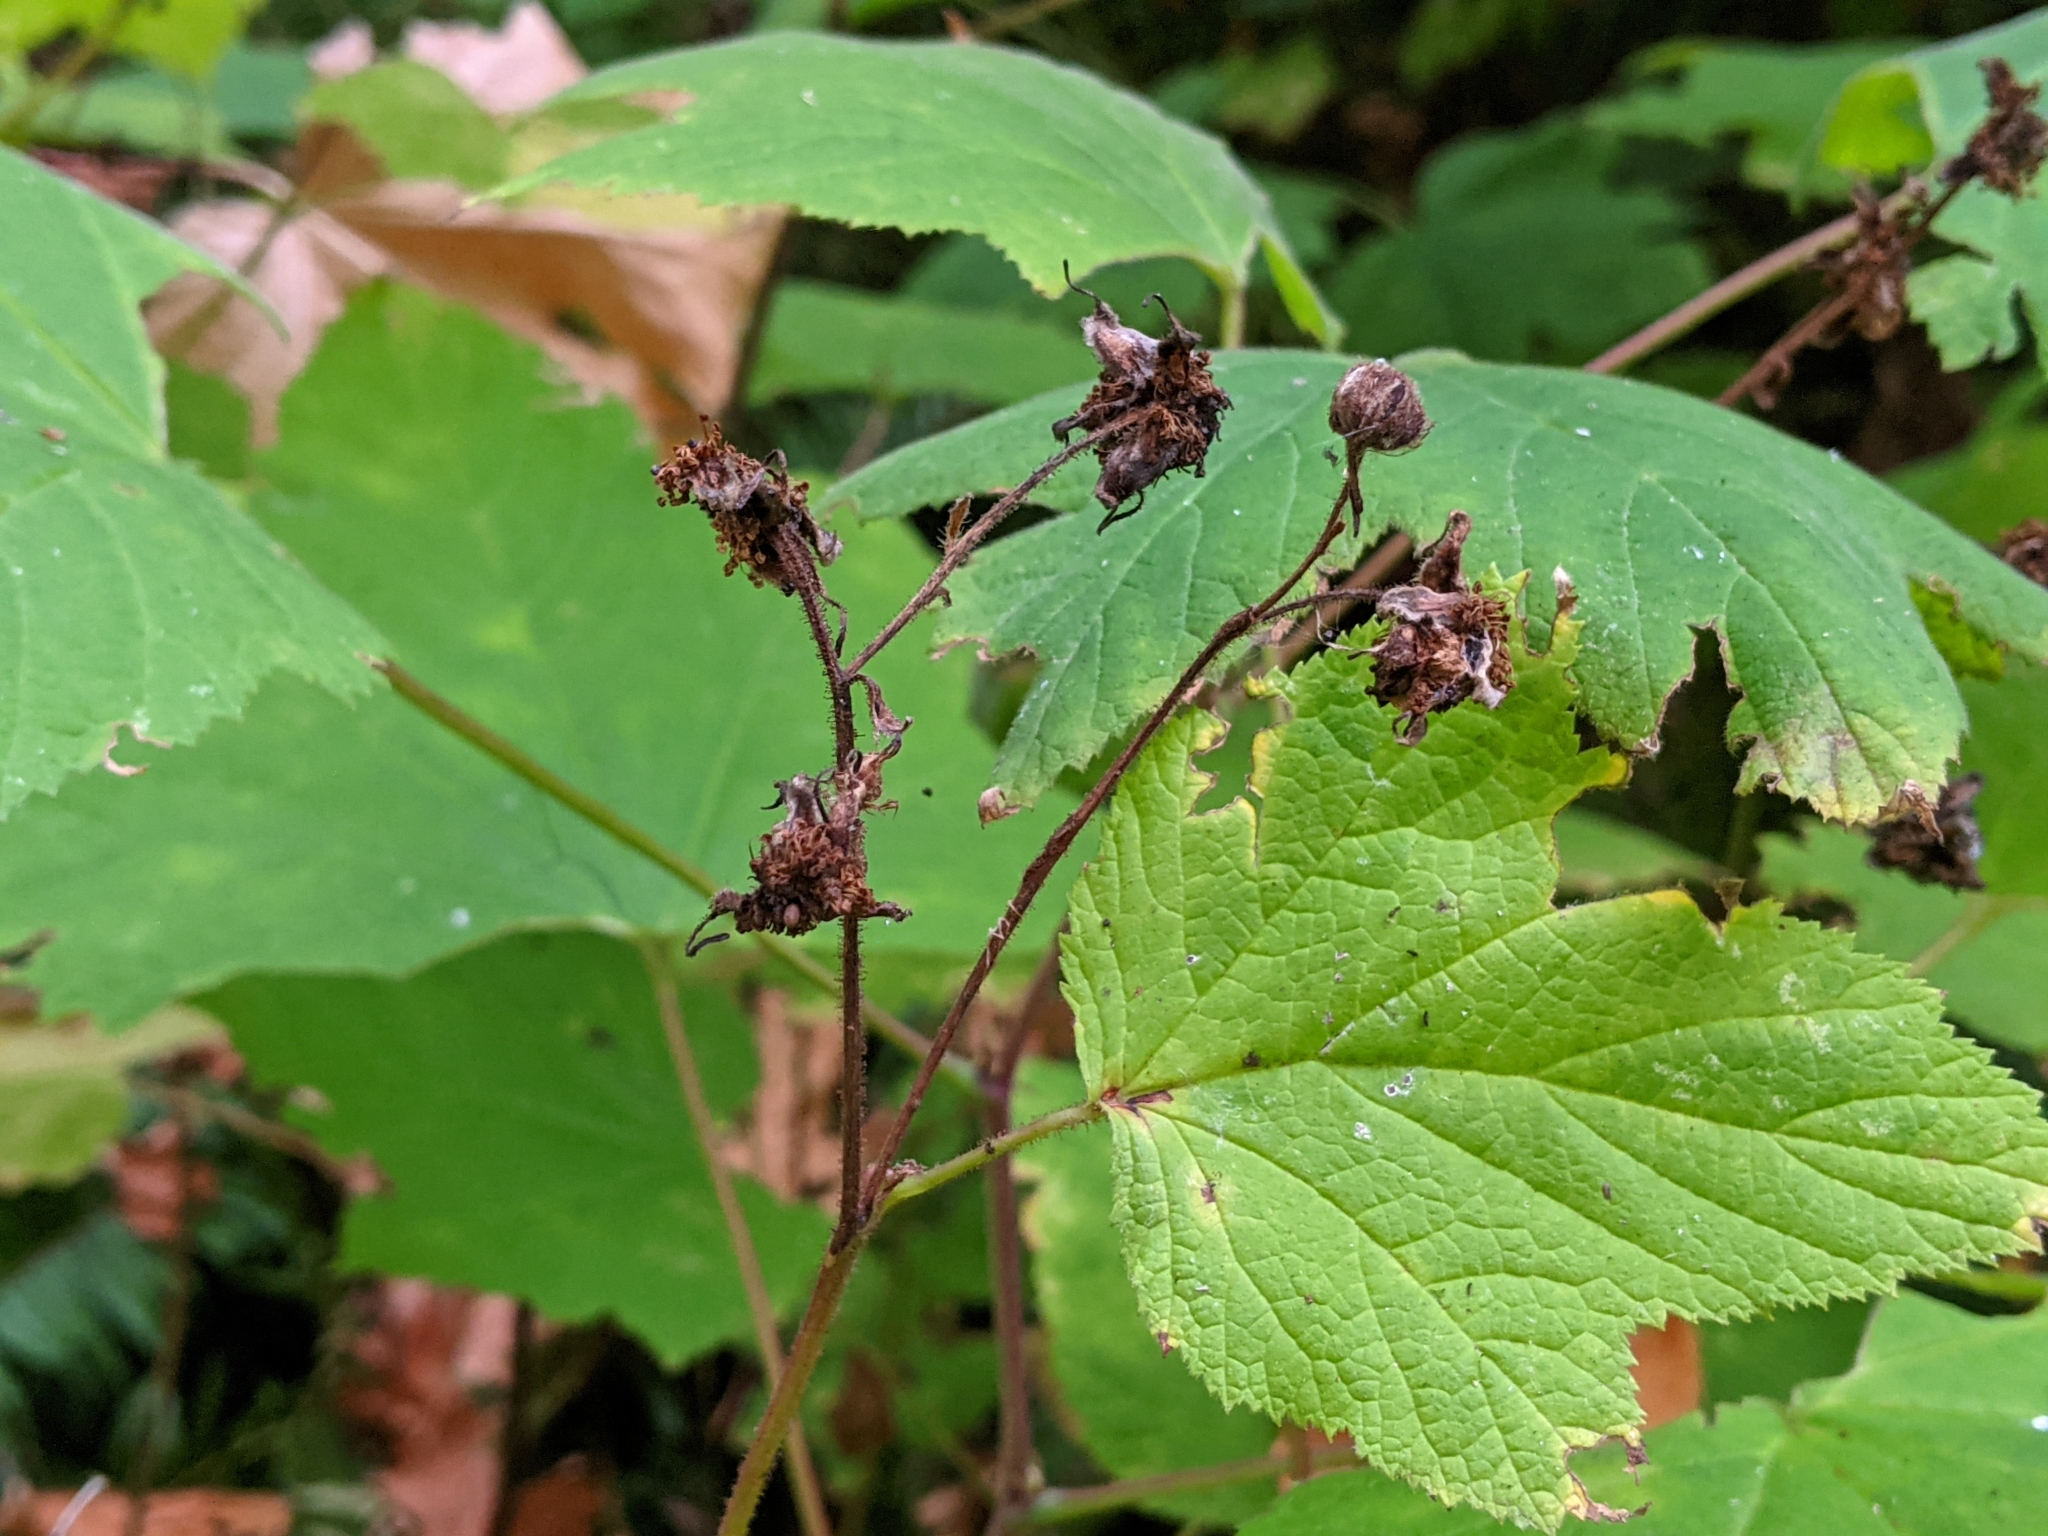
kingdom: Plantae
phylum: Tracheophyta
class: Magnoliopsida
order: Rosales
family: Rosaceae
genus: Rubus
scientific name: Rubus parviflorus
